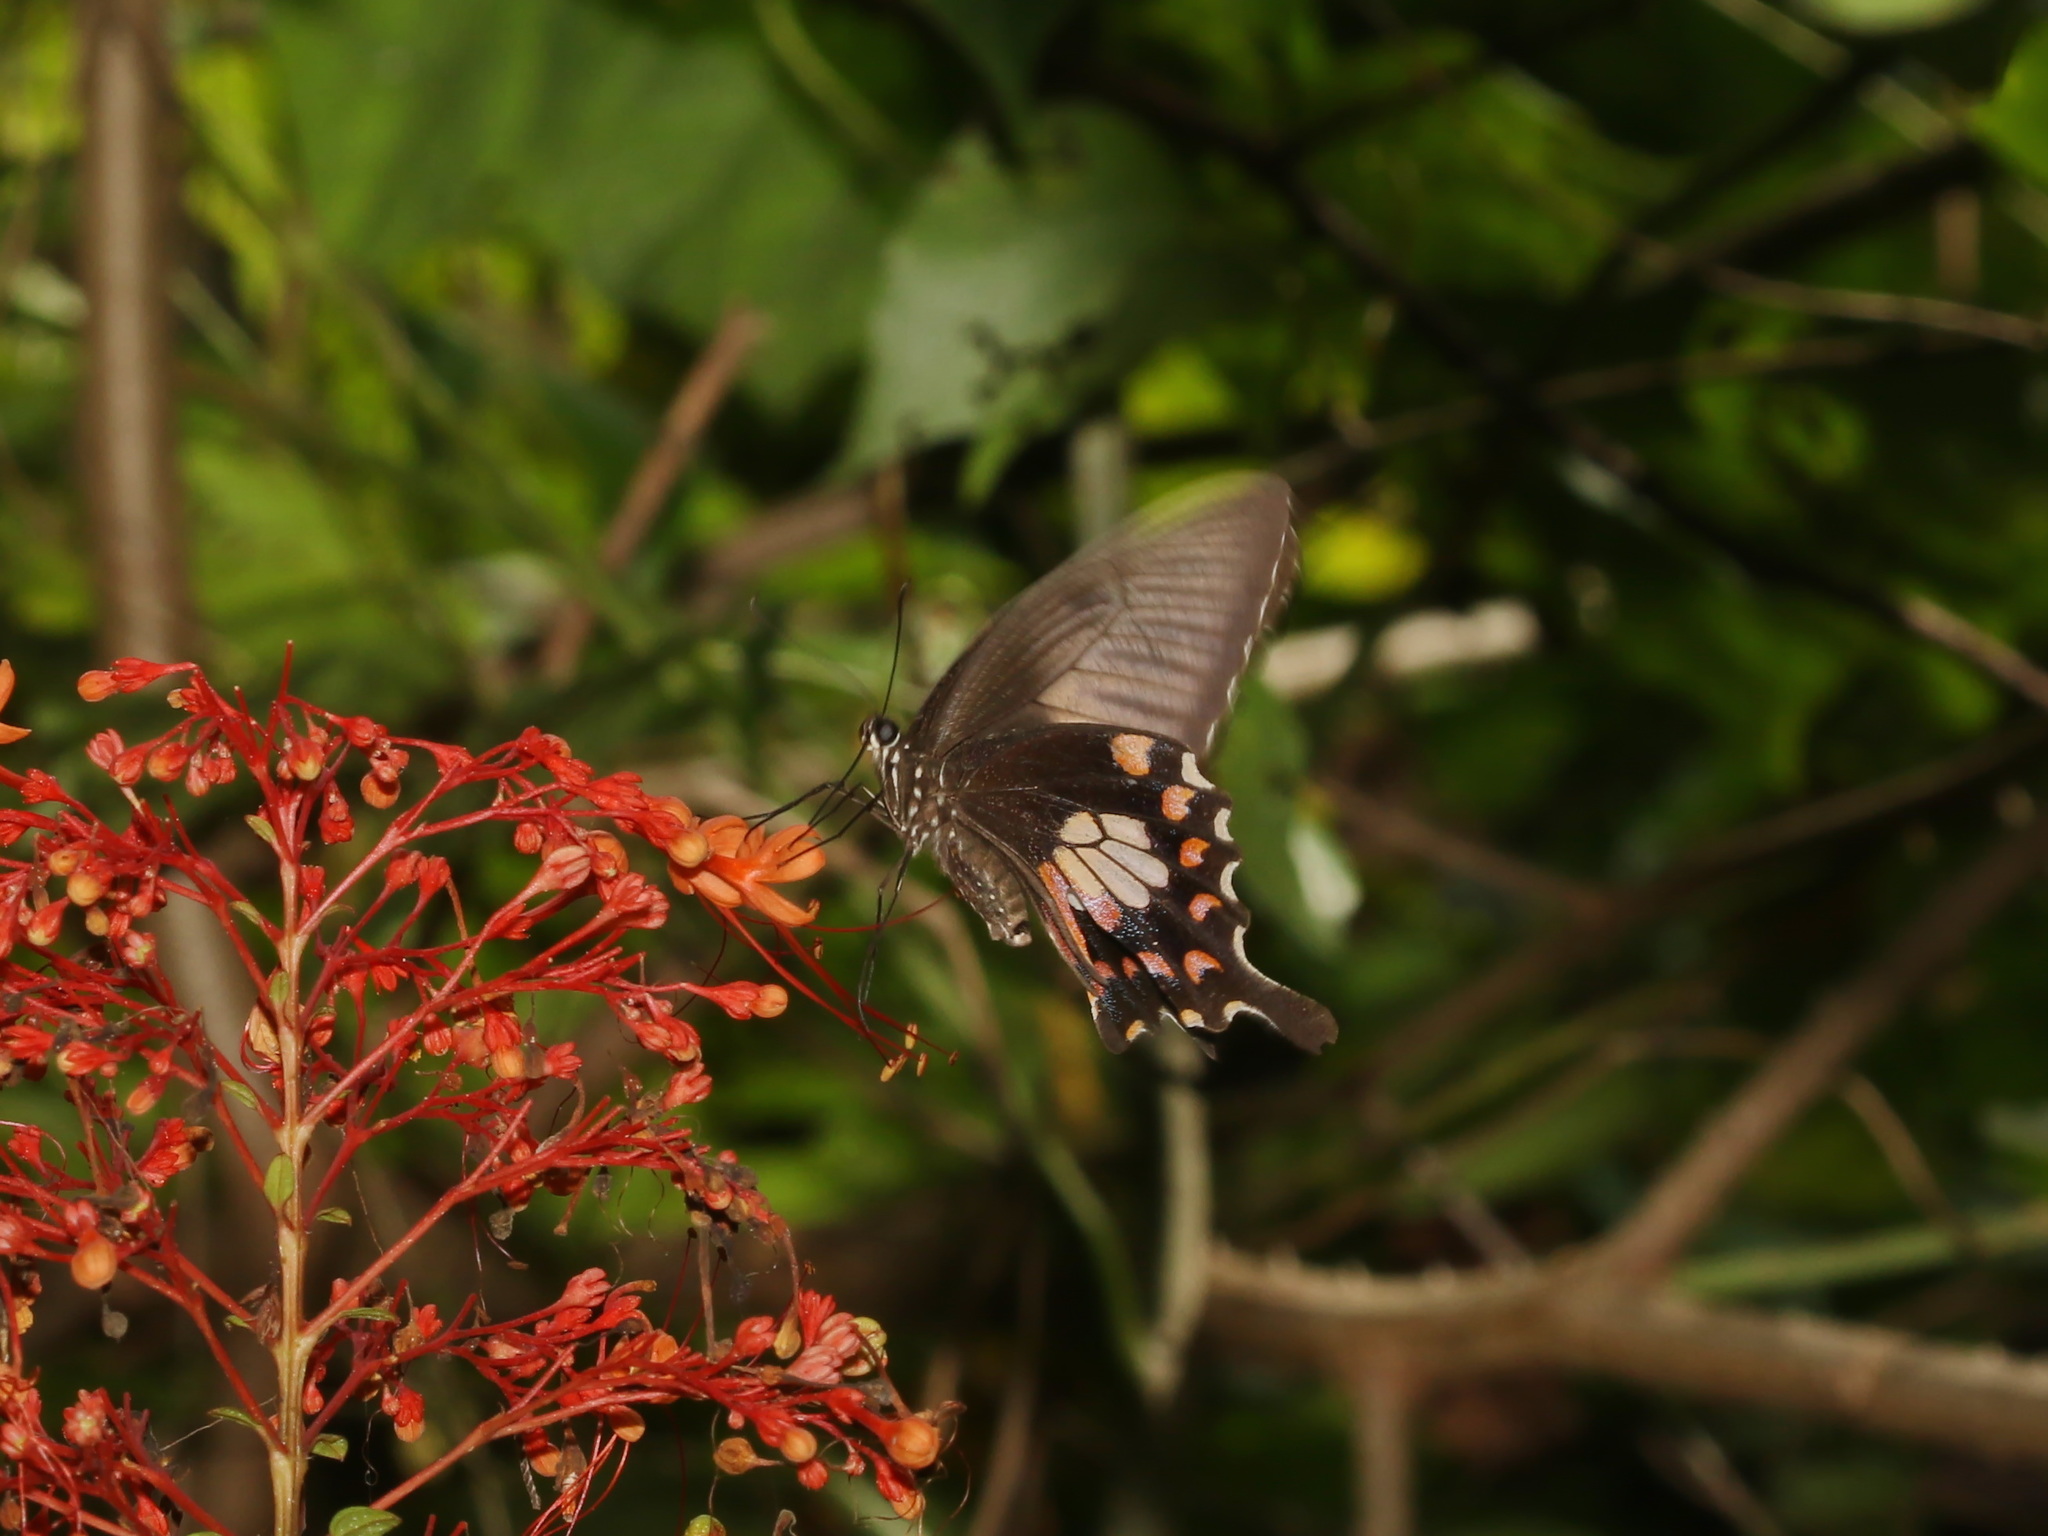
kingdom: Animalia
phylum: Arthropoda
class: Insecta
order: Lepidoptera
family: Papilionidae
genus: Papilio
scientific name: Papilio polytes
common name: Common mormon
